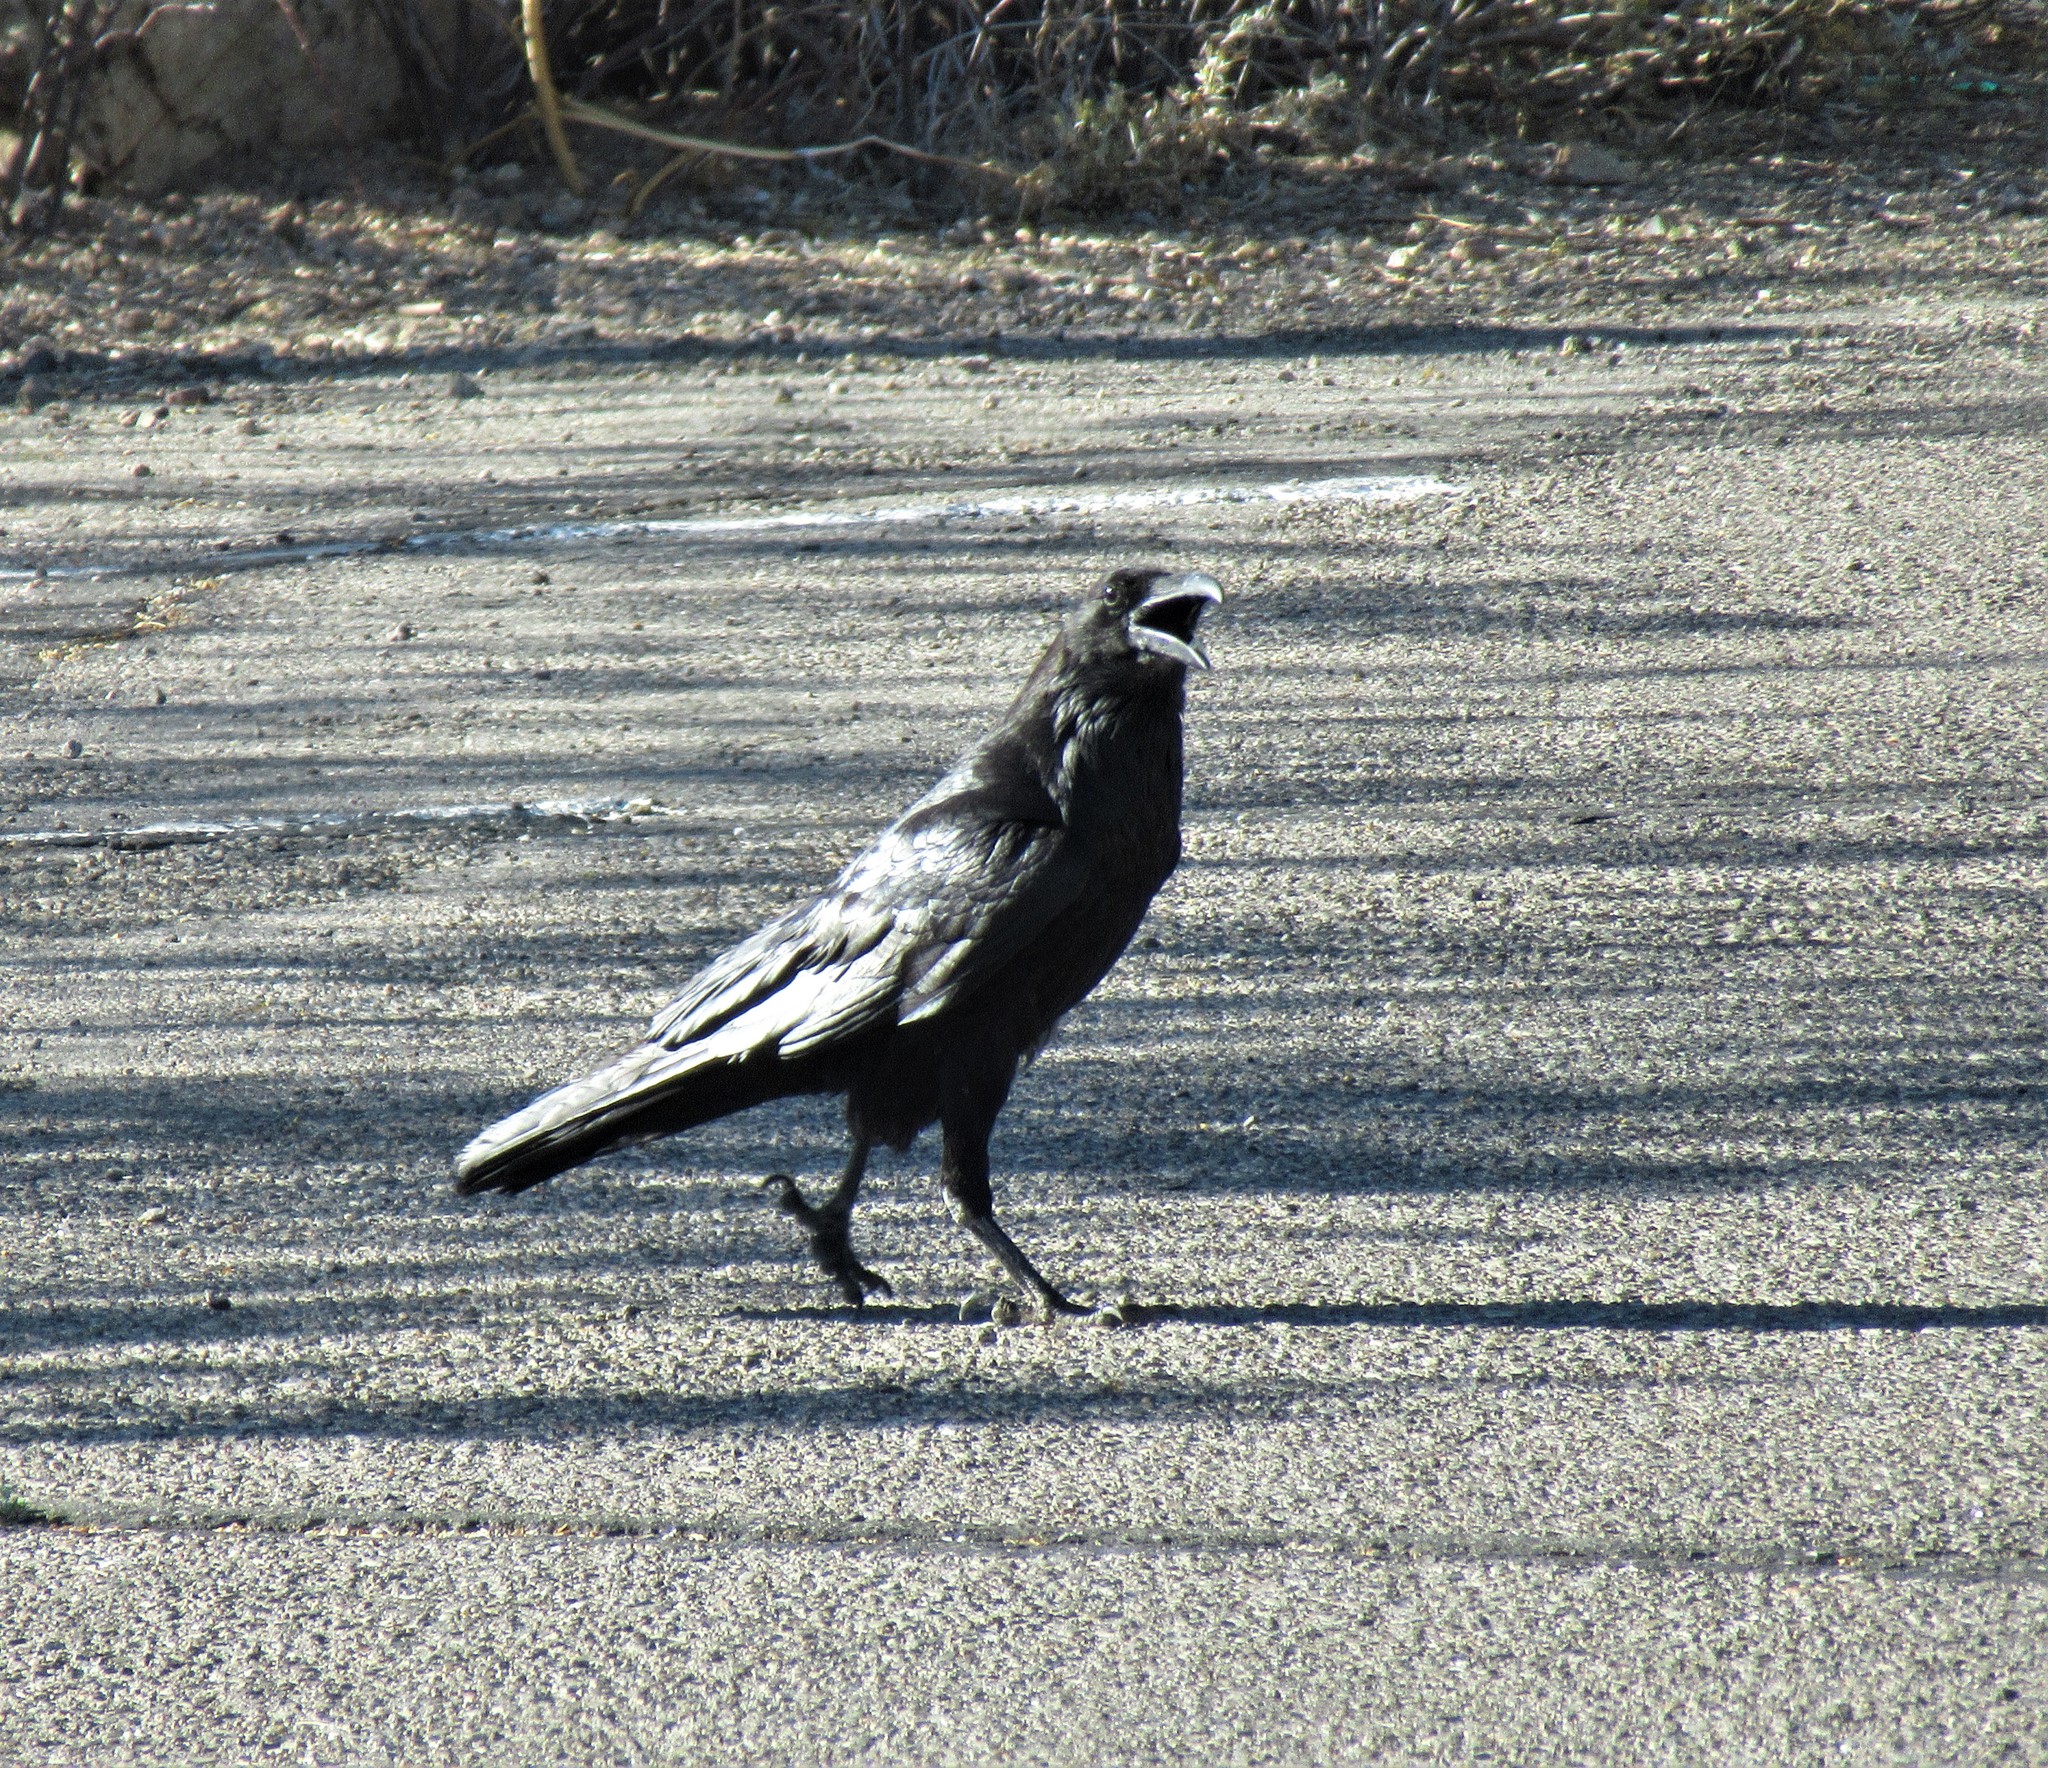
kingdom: Animalia
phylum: Chordata
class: Aves
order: Passeriformes
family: Corvidae
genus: Corvus
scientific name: Corvus corax
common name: Common raven
